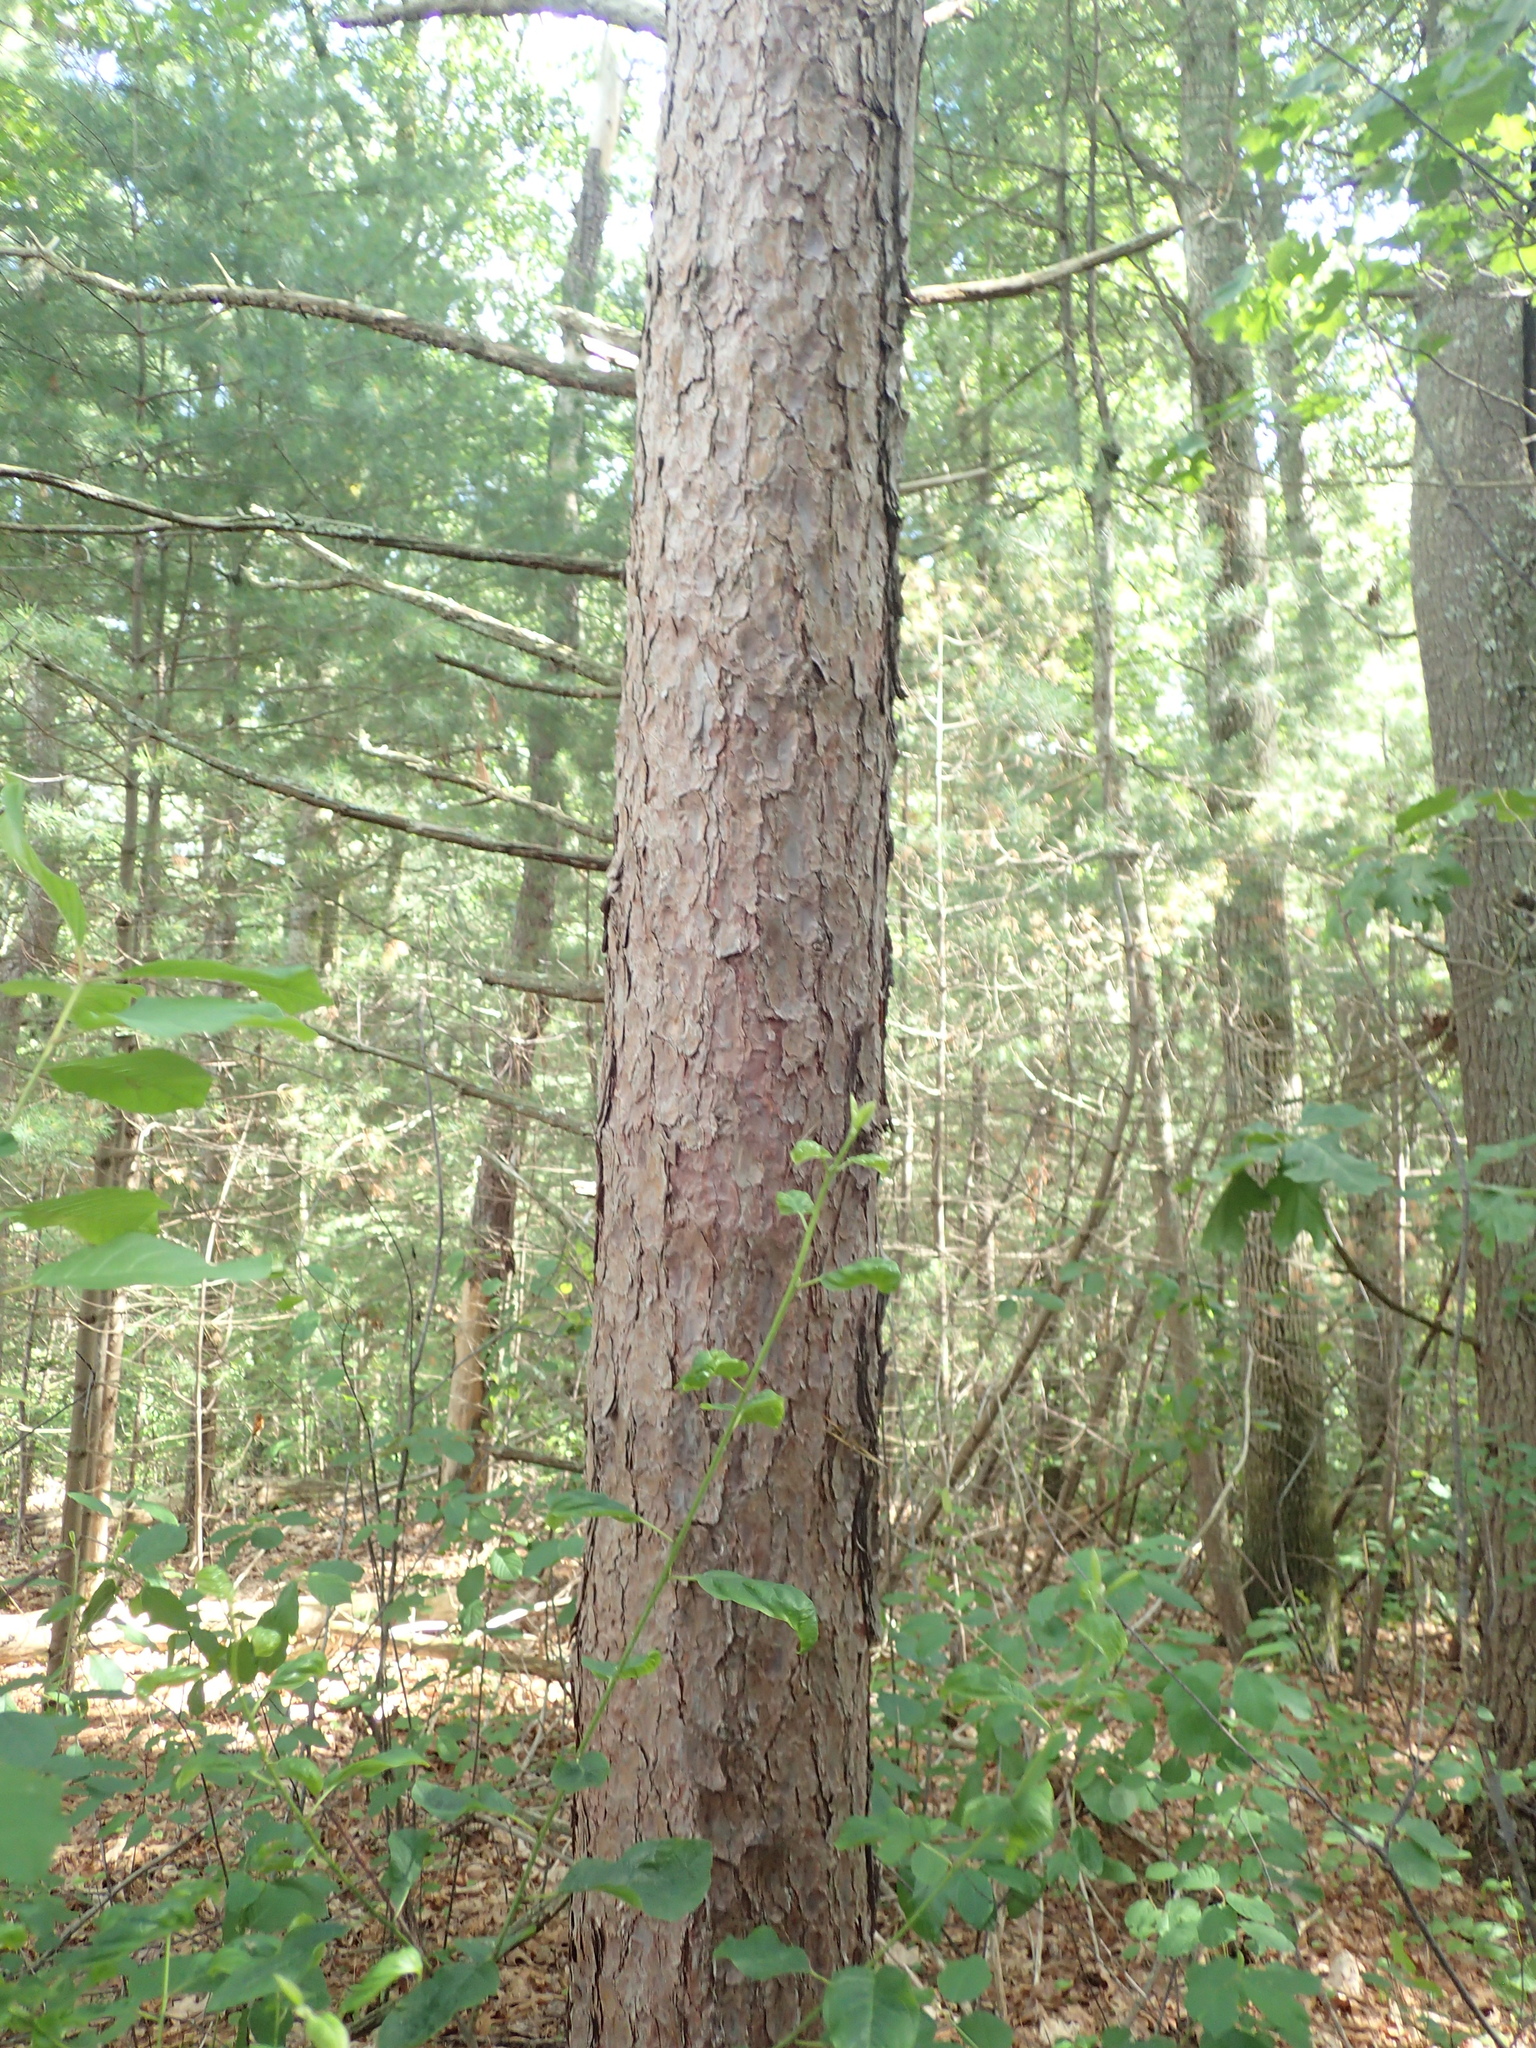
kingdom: Plantae
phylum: Tracheophyta
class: Pinopsida
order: Pinales
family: Pinaceae
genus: Pinus
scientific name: Pinus resinosa
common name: Norway pine
